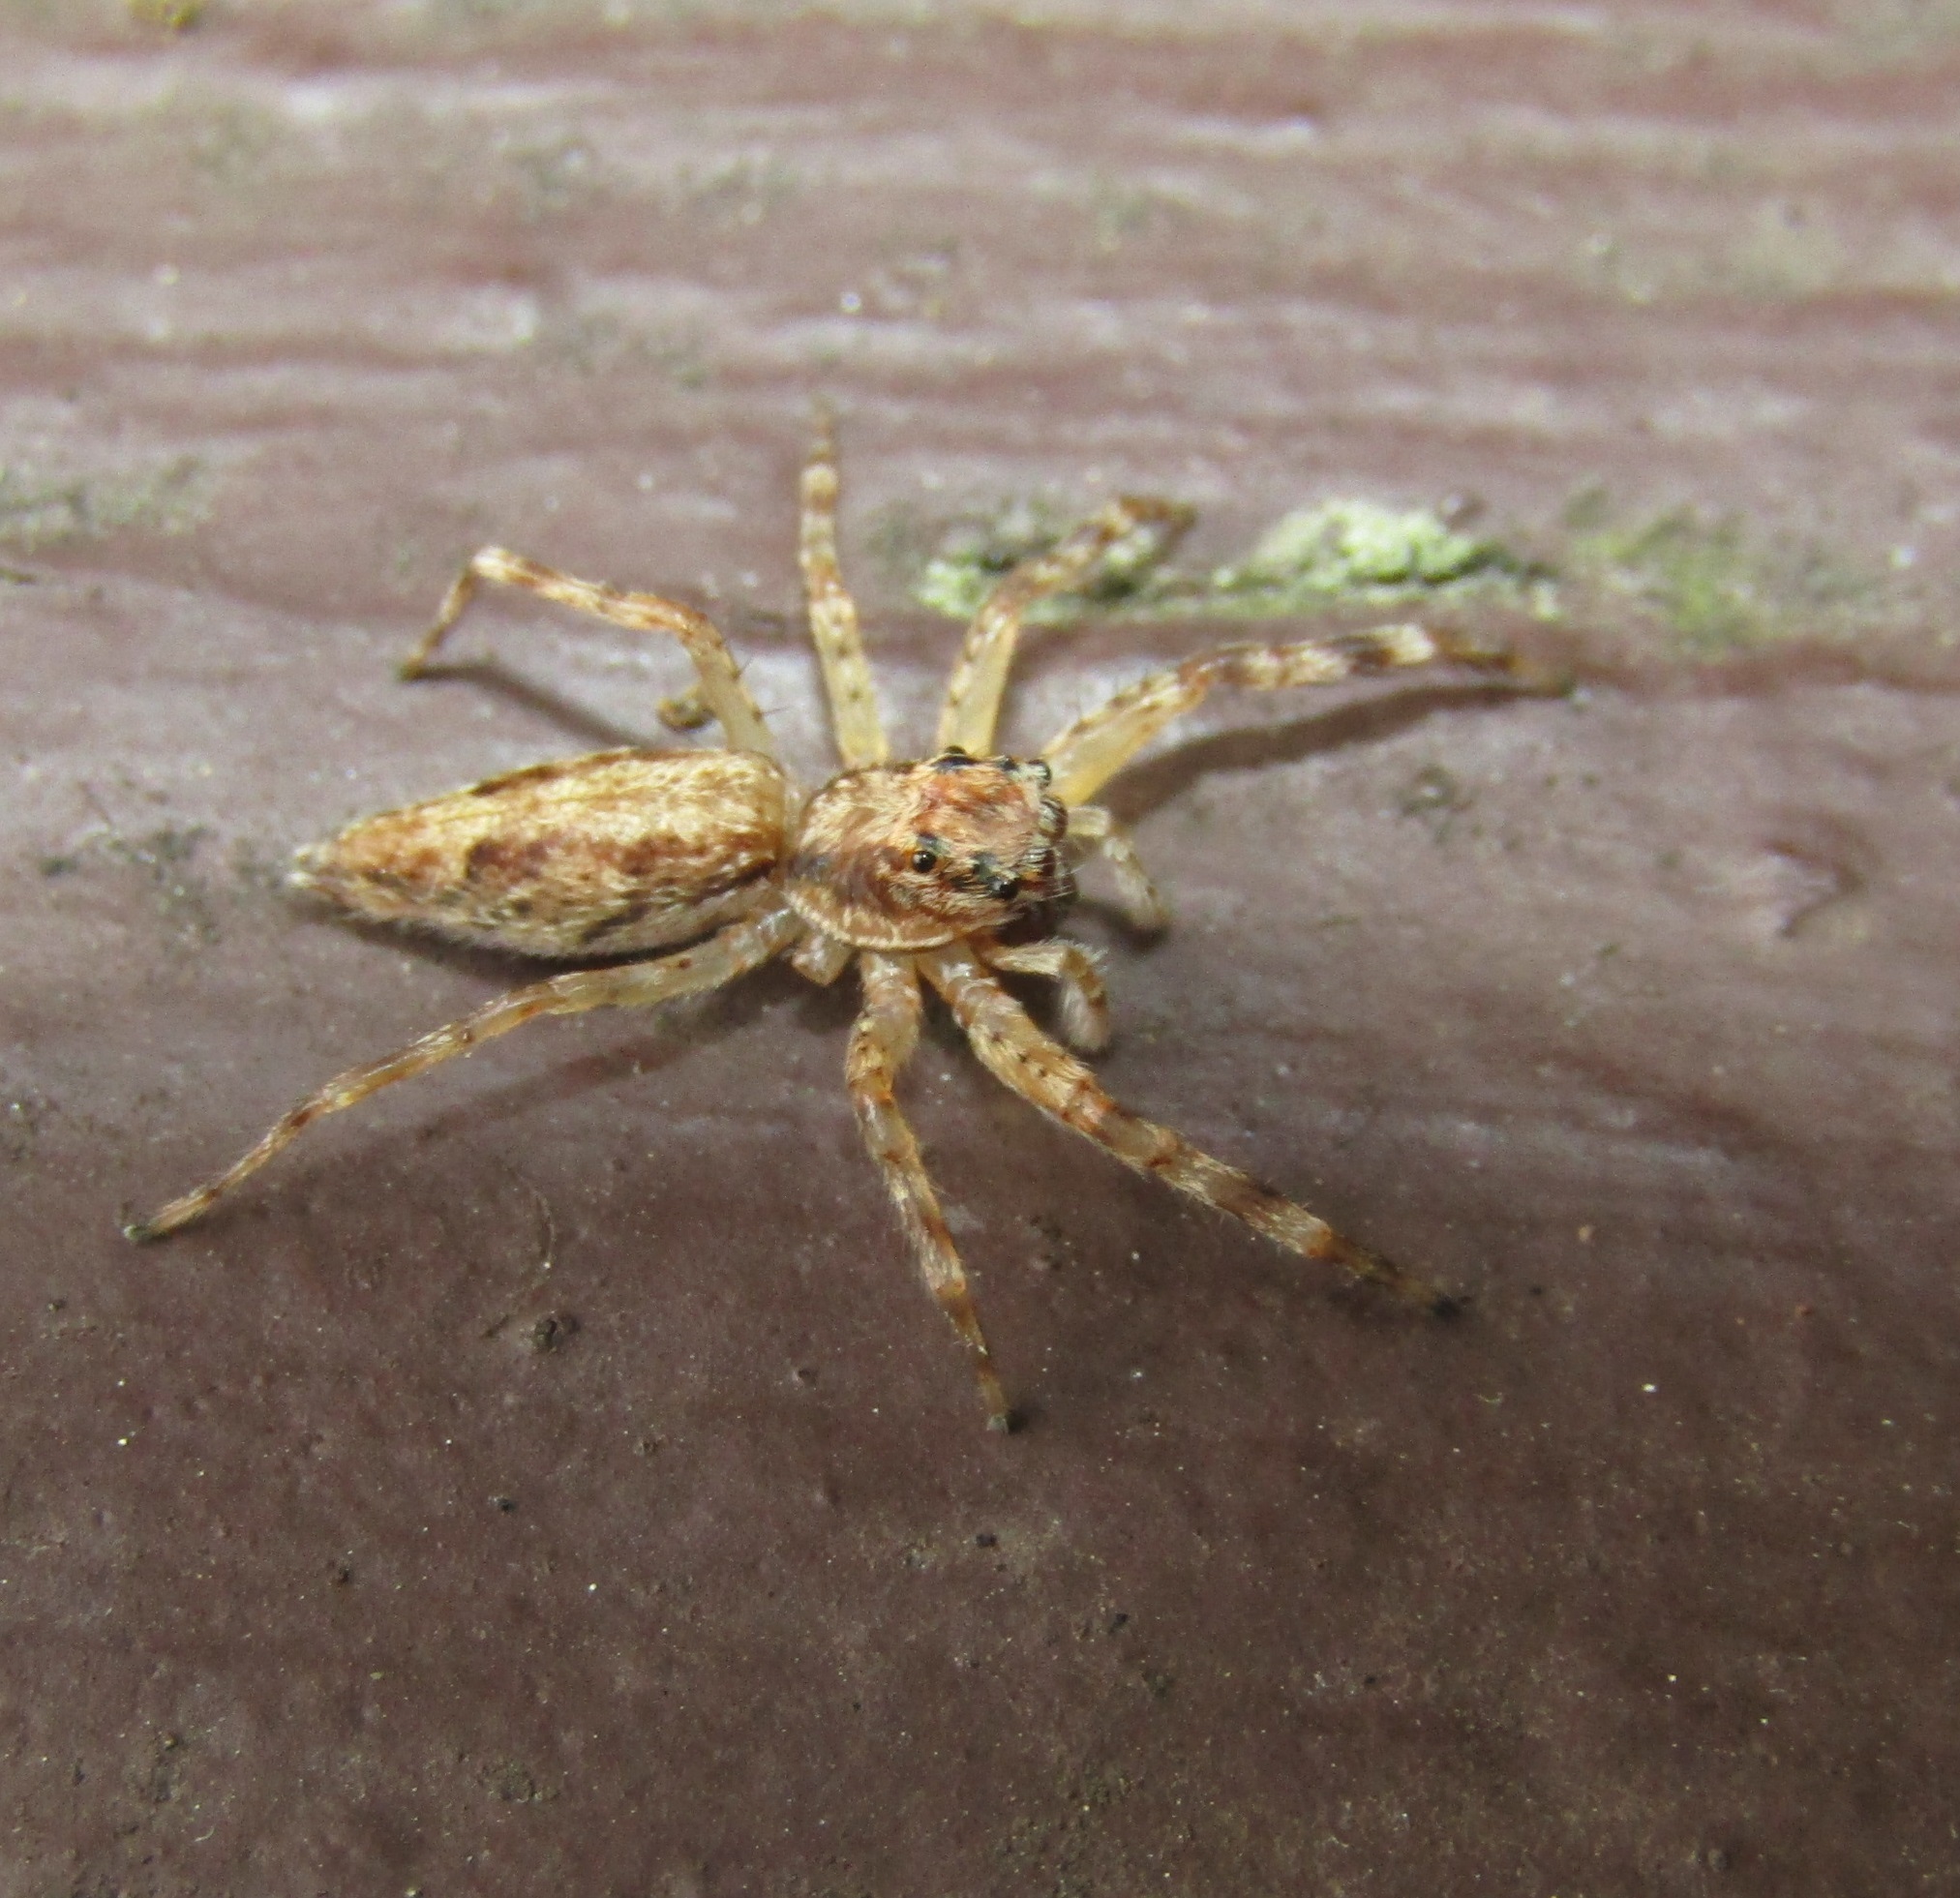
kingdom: Animalia
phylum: Arthropoda
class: Arachnida
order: Araneae
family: Salticidae
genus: Helpis
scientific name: Helpis minitabunda
